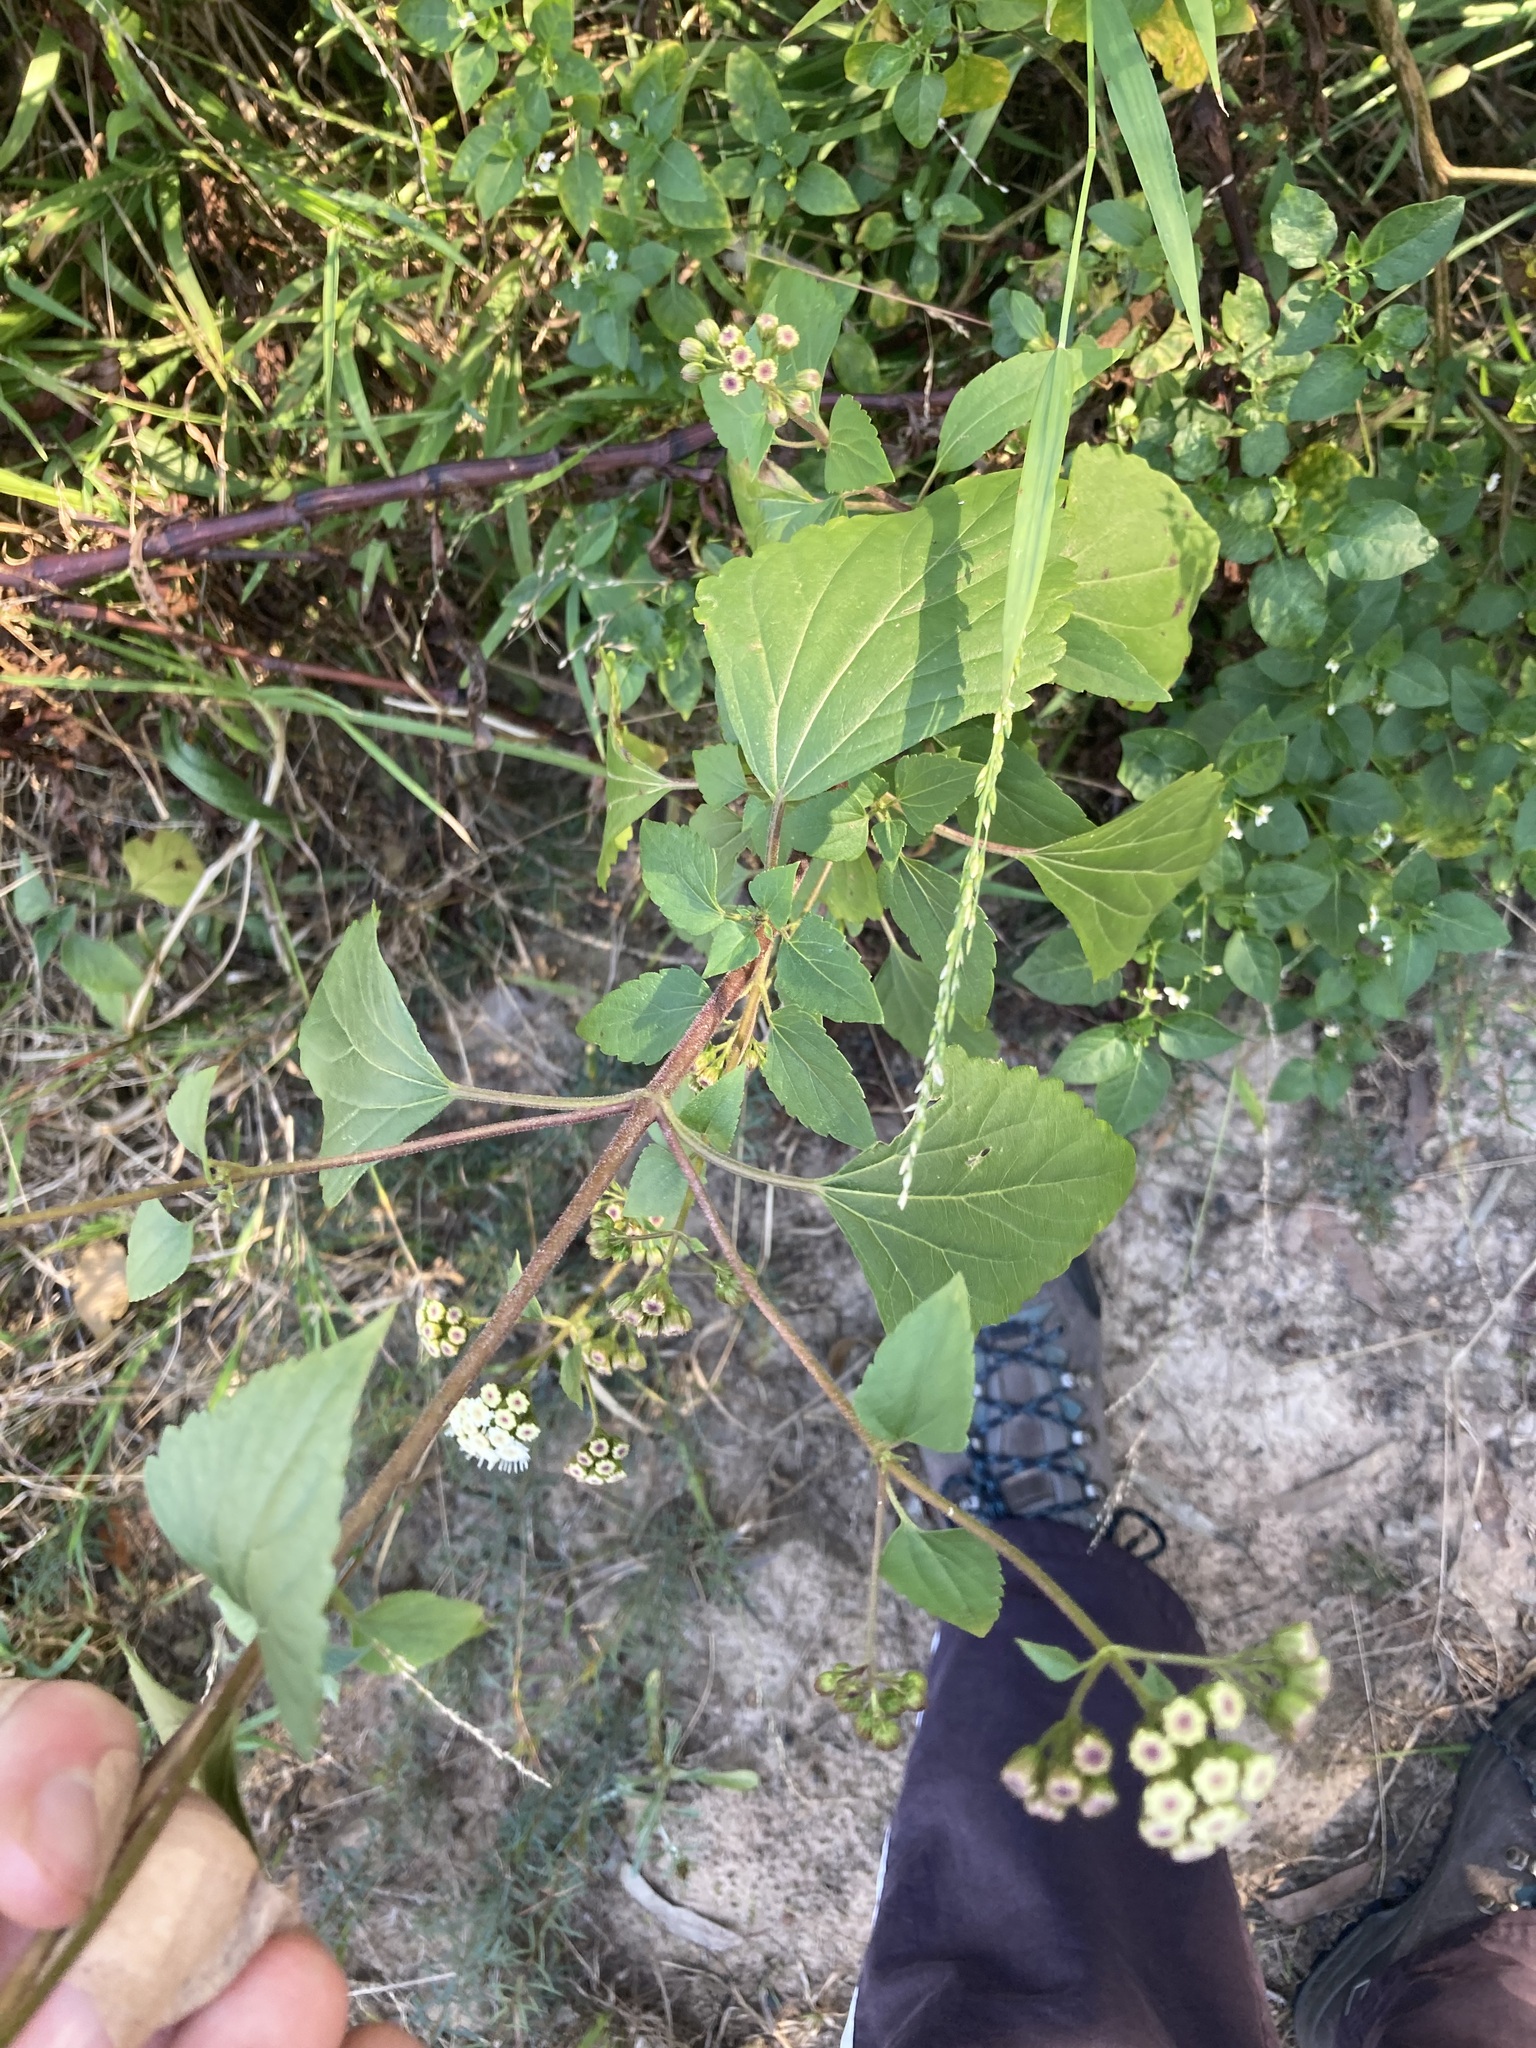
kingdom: Plantae
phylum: Tracheophyta
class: Magnoliopsida
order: Asterales
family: Asteraceae
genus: Ageratina
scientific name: Ageratina adenophora
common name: Sticky snakeroot
